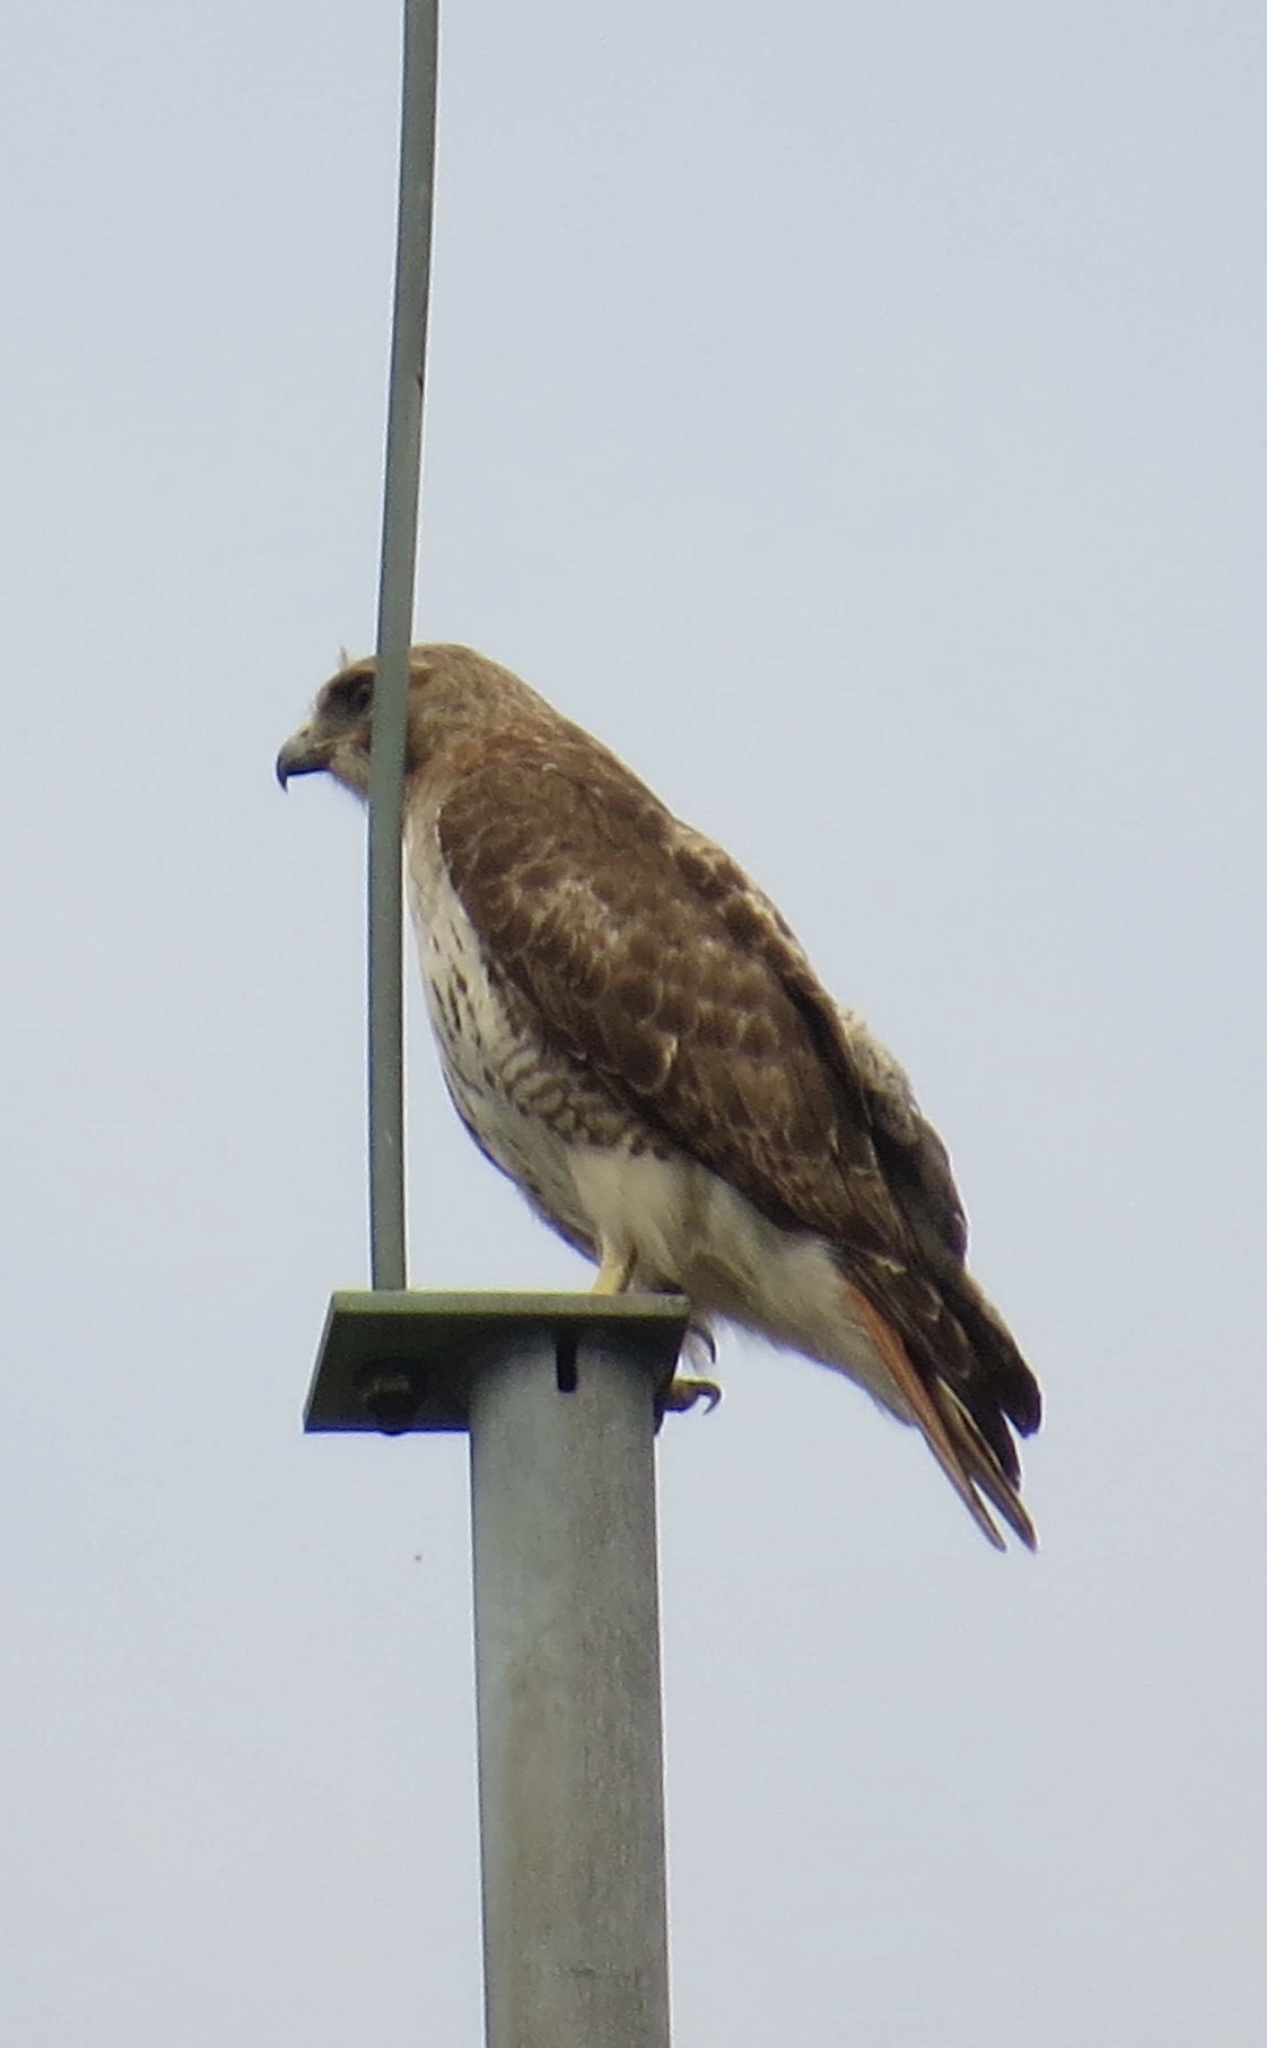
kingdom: Animalia
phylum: Chordata
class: Aves
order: Accipitriformes
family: Accipitridae
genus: Buteo
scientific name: Buteo jamaicensis
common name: Red-tailed hawk
